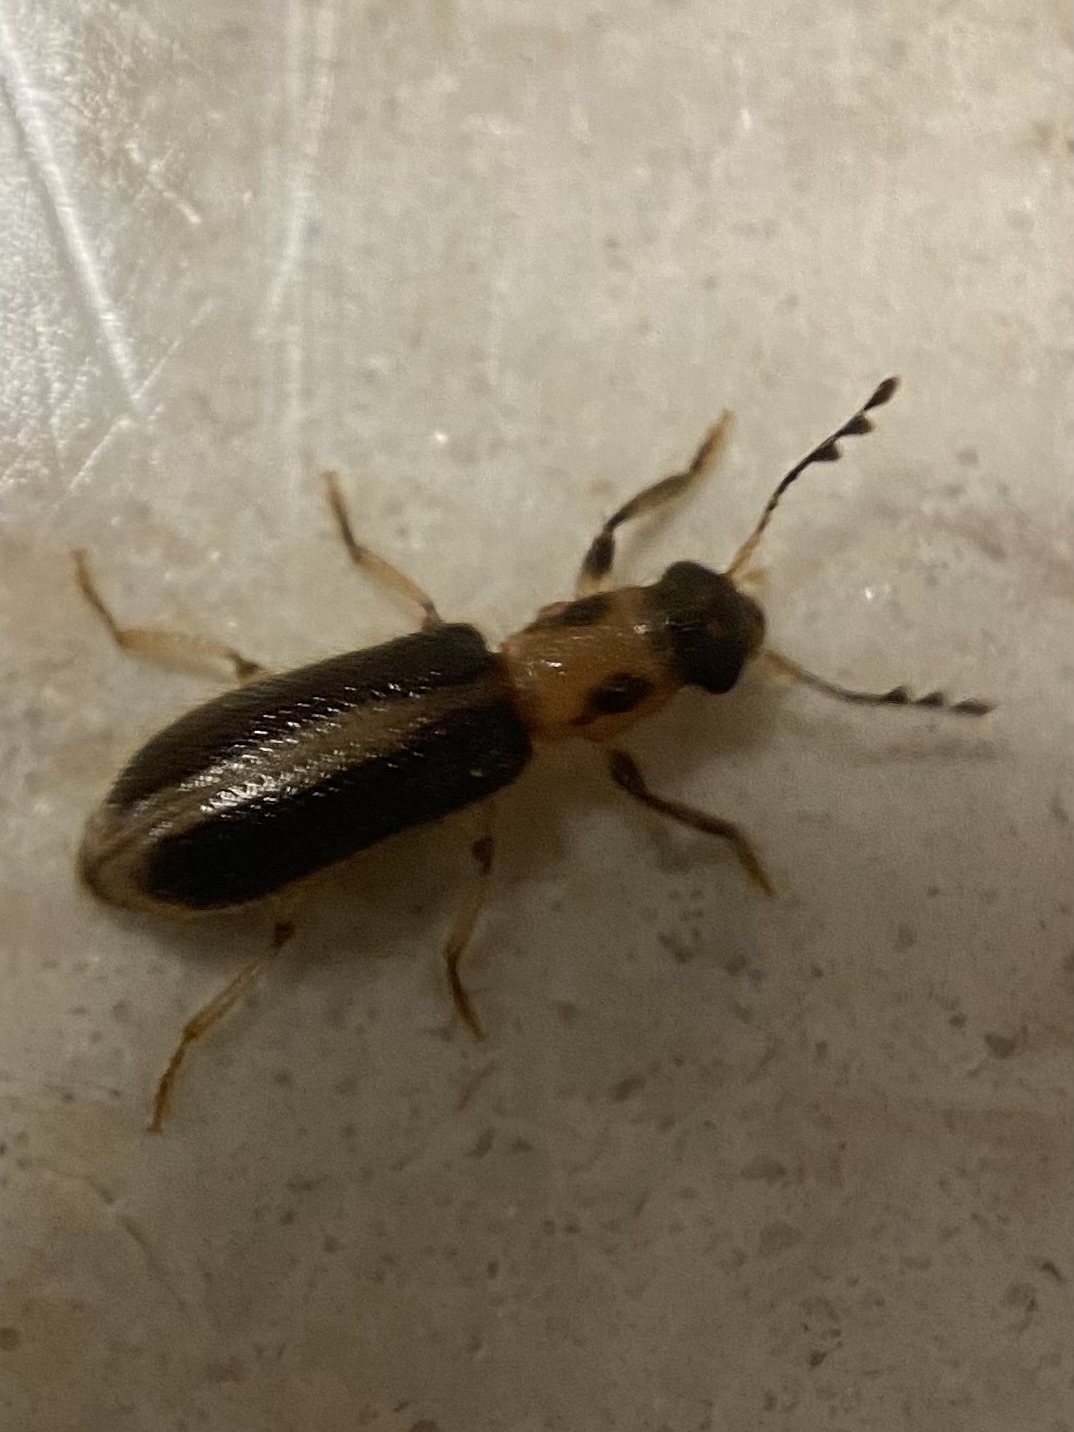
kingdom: Animalia
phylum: Arthropoda
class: Insecta
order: Coleoptera
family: Cleridae
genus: Cregya
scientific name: Cregya oculata
